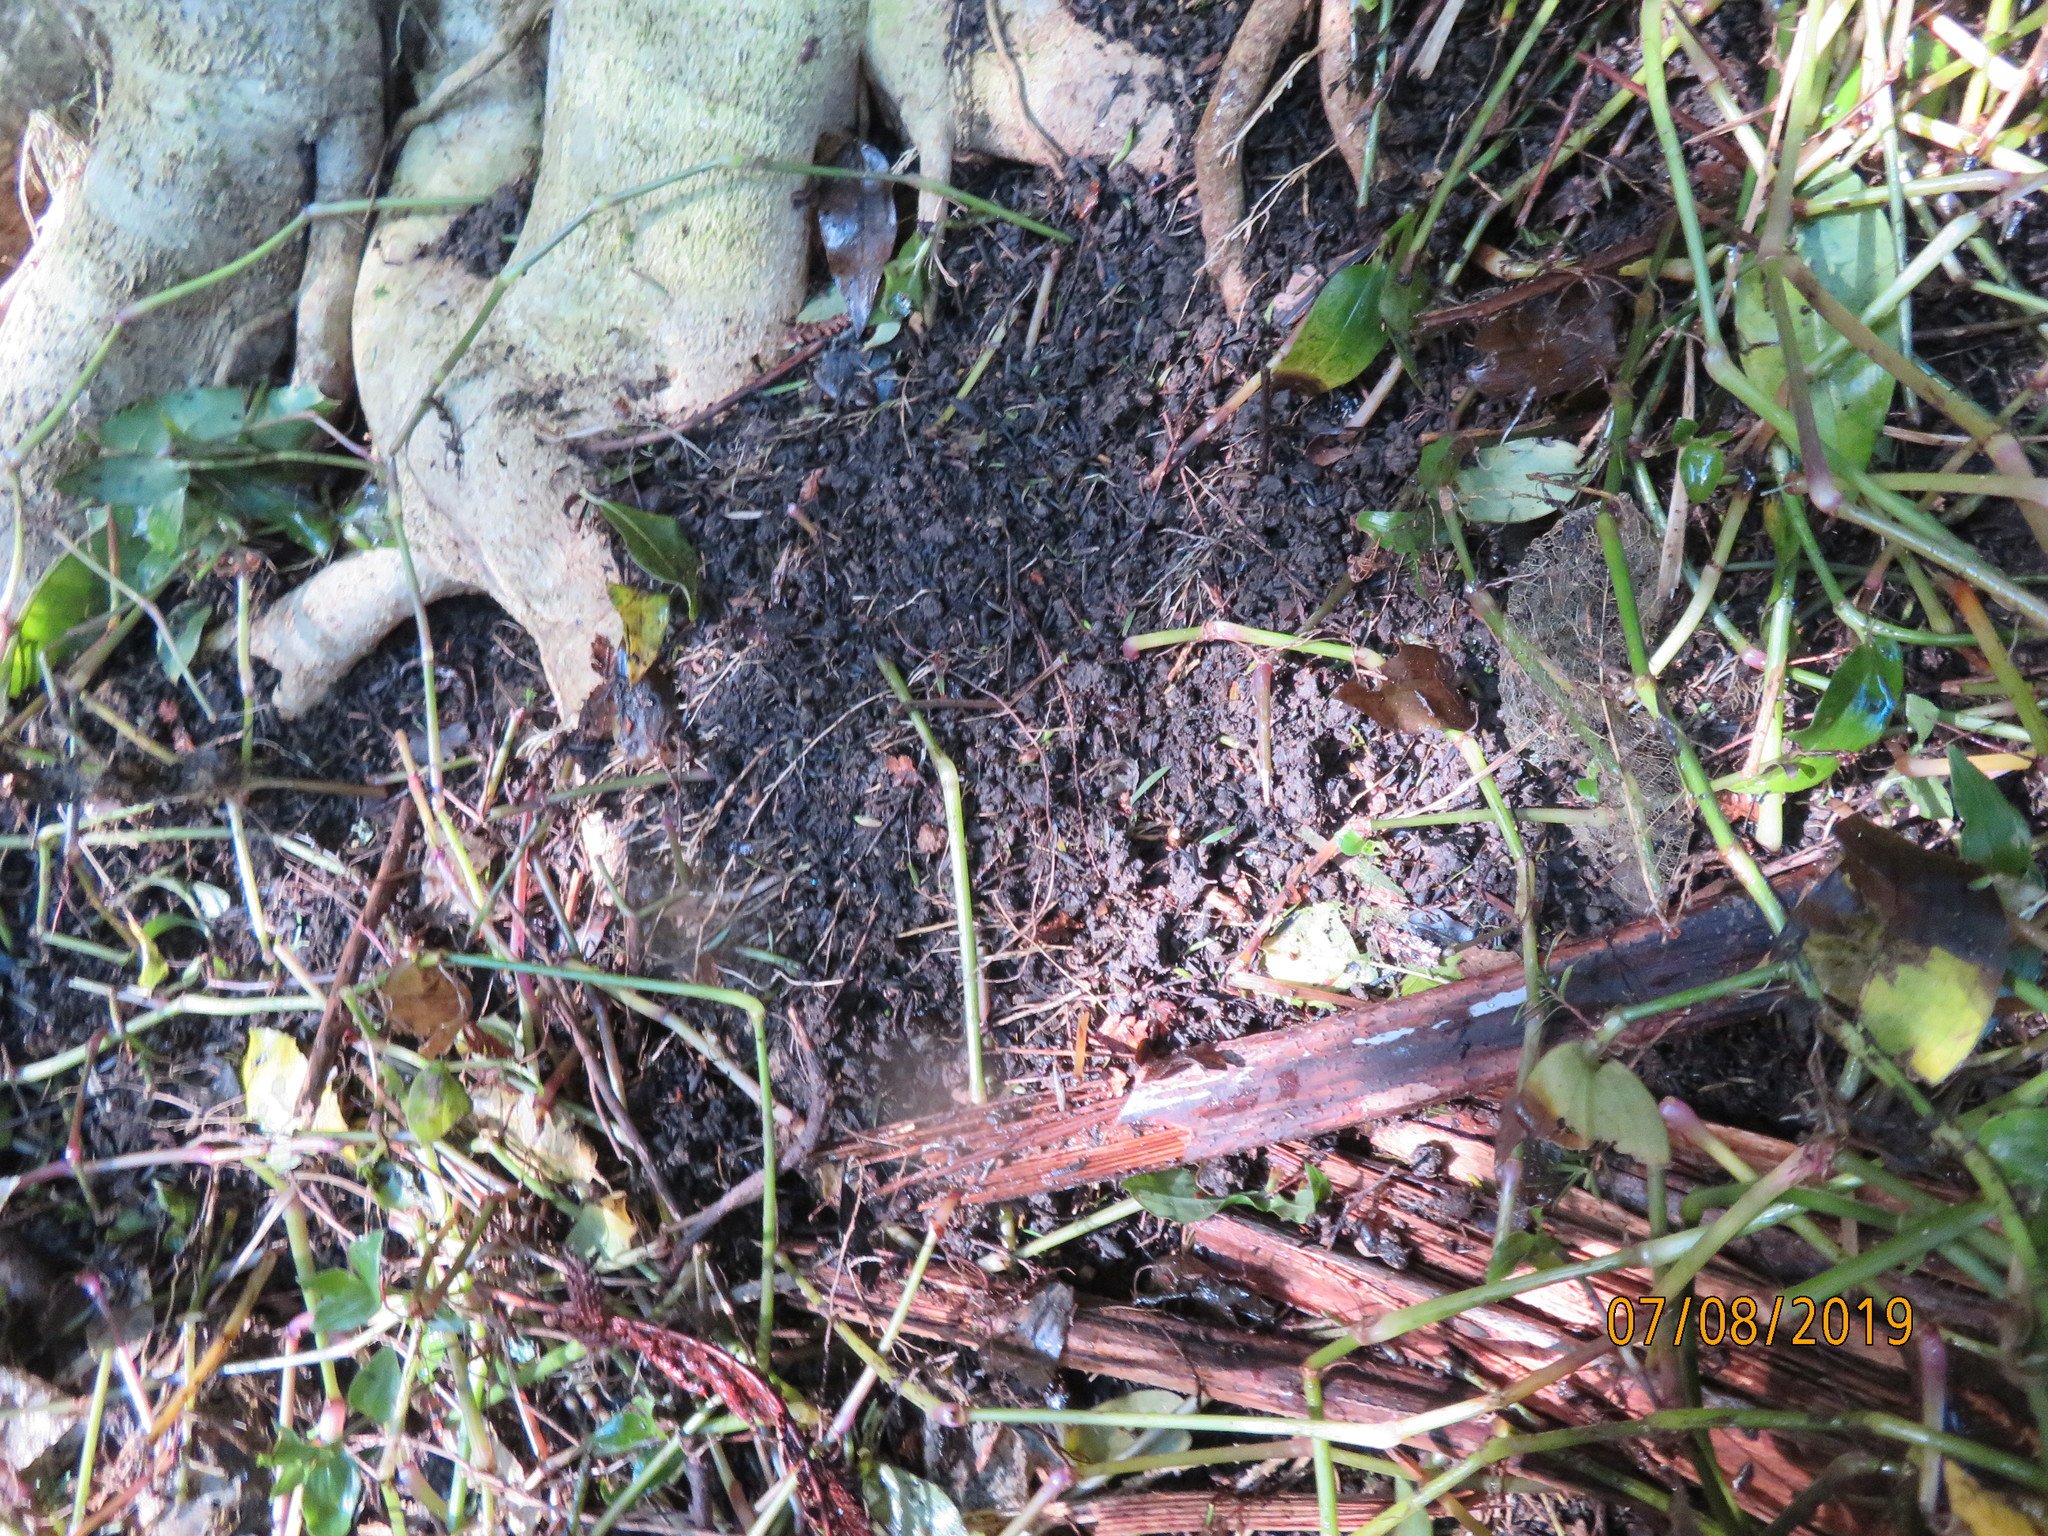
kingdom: Plantae
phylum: Tracheophyta
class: Liliopsida
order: Commelinales
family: Commelinaceae
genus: Tradescantia
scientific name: Tradescantia fluminensis
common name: Wandering-jew
